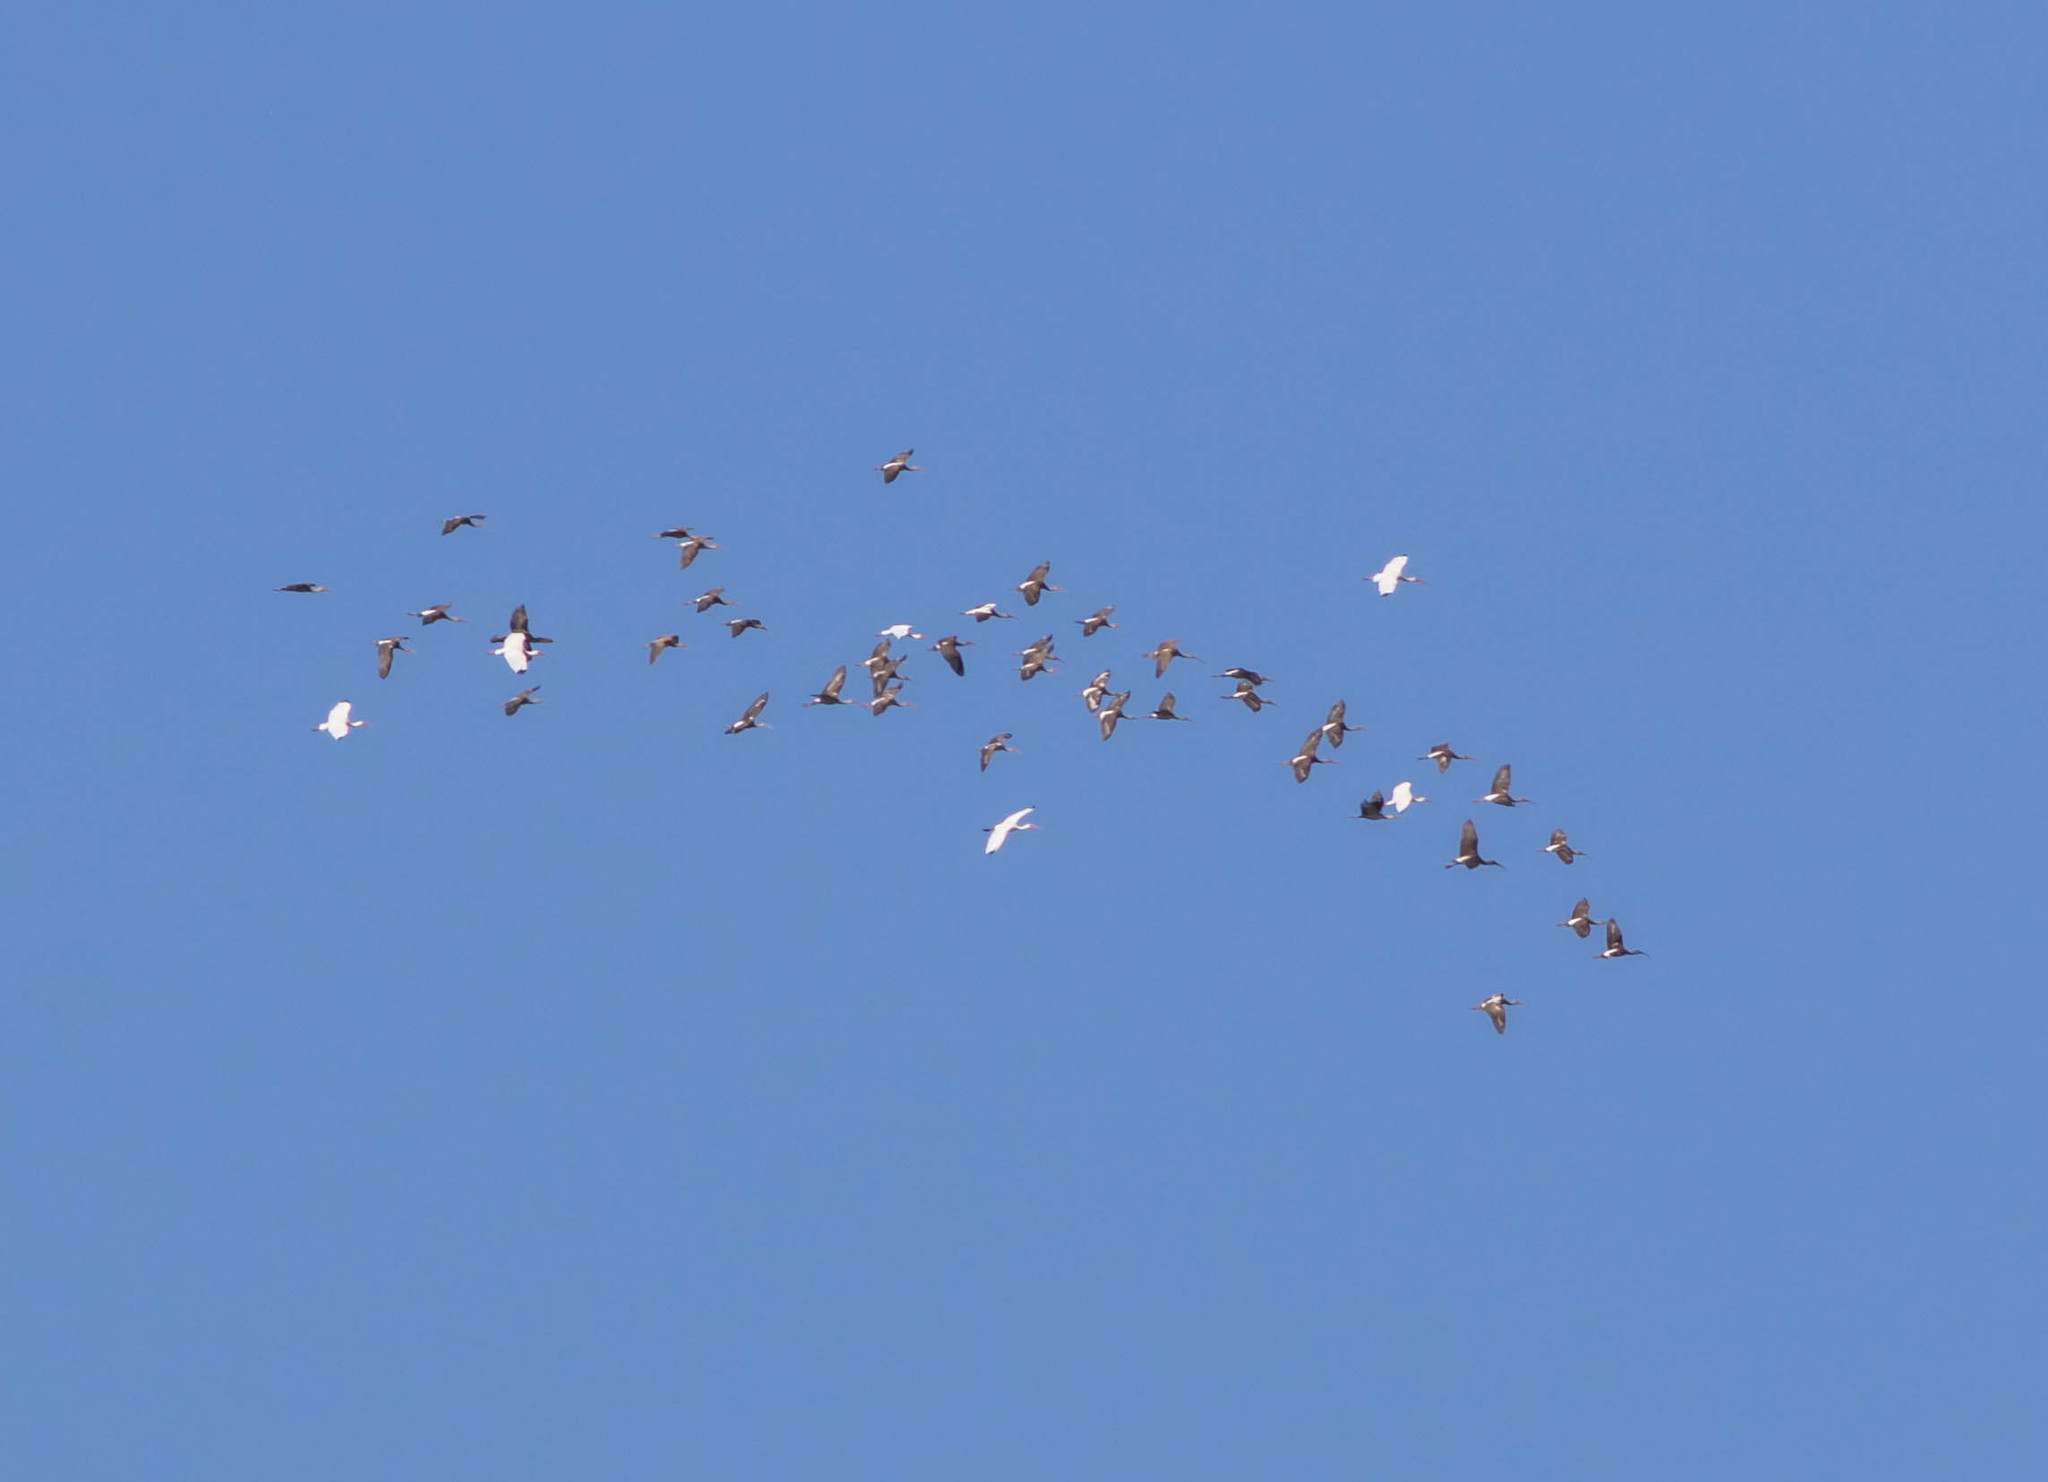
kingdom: Animalia
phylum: Chordata
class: Aves
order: Pelecaniformes
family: Threskiornithidae
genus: Eudocimus
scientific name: Eudocimus albus
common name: White ibis
